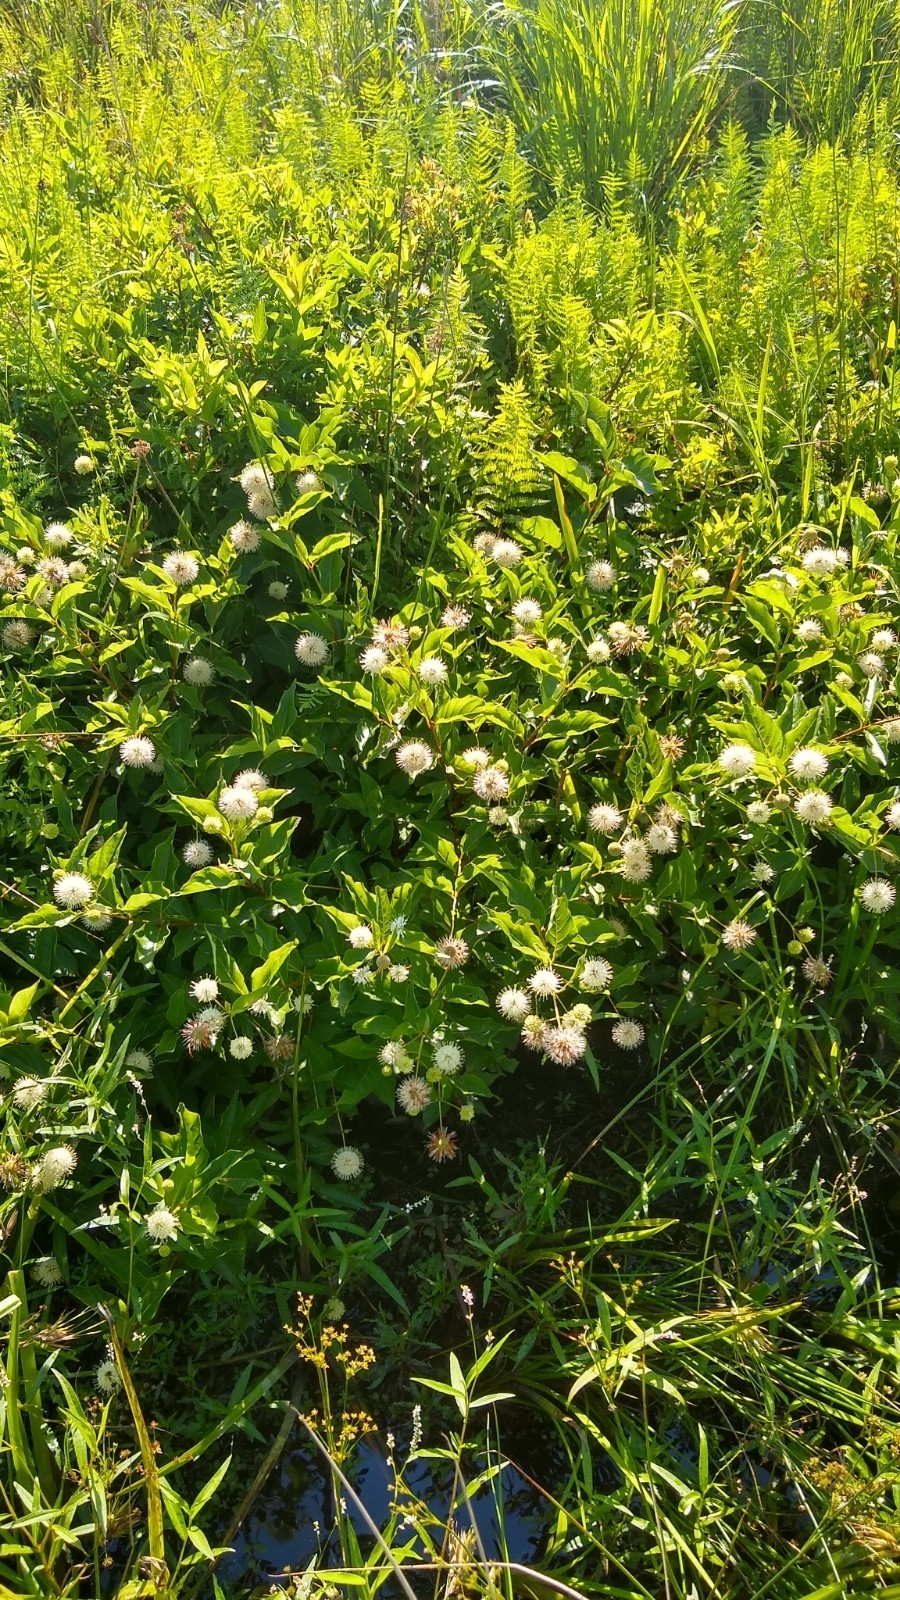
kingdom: Plantae
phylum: Tracheophyta
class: Magnoliopsida
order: Gentianales
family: Rubiaceae
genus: Cephalanthus
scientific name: Cephalanthus occidentalis
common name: Button-willow
